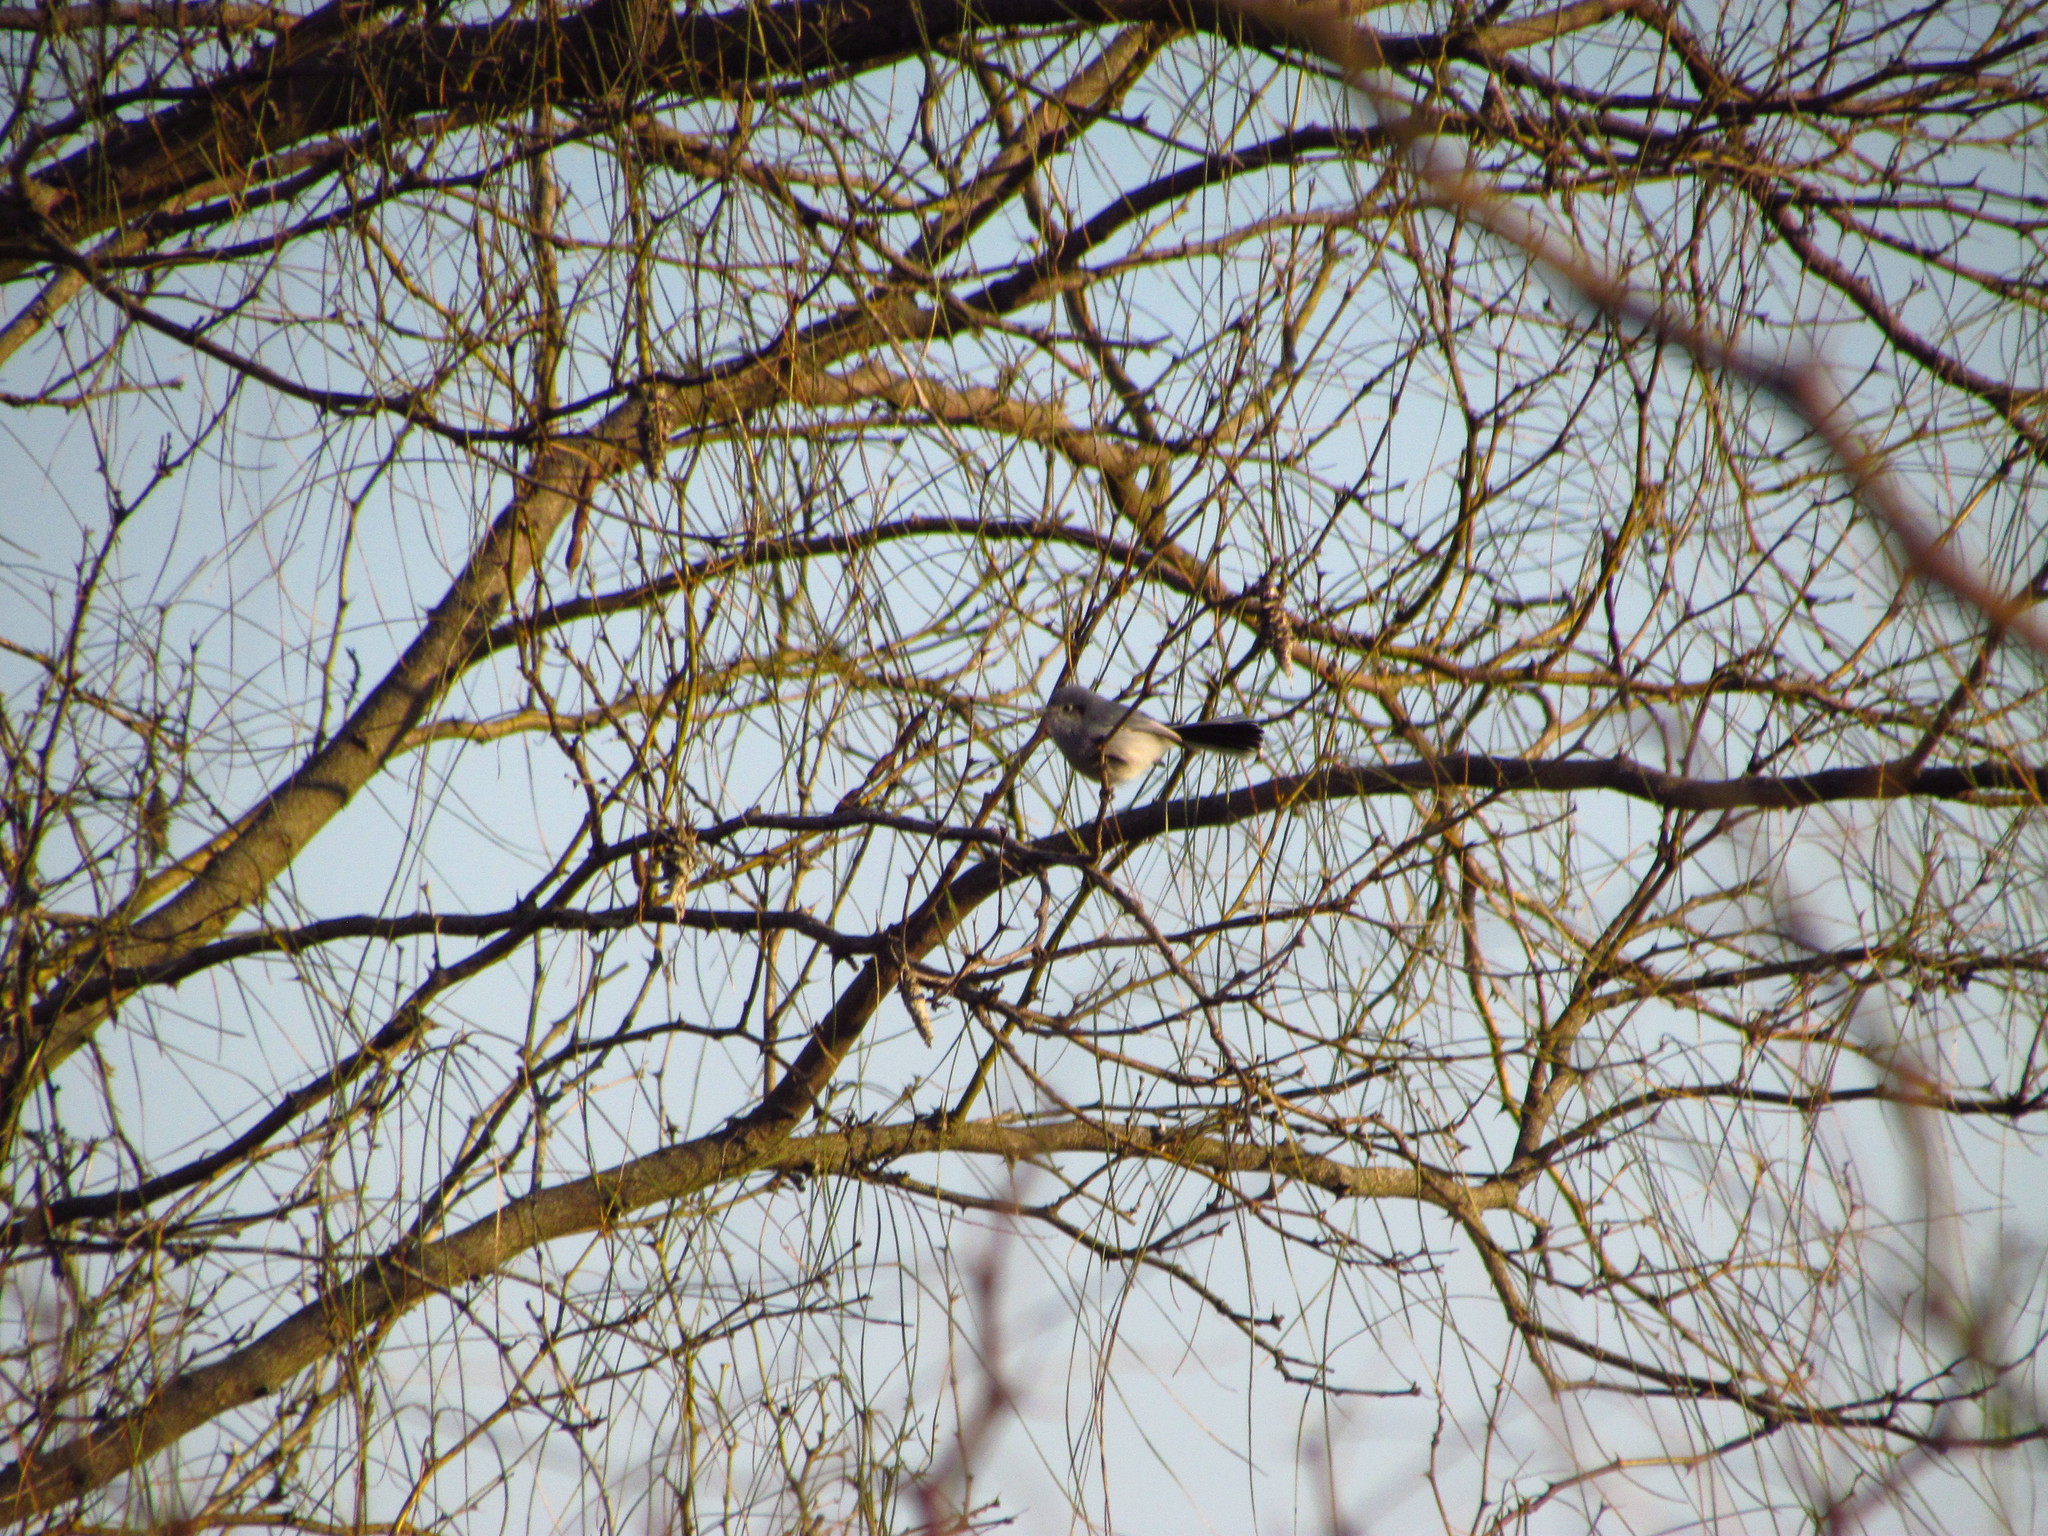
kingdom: Animalia
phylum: Chordata
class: Aves
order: Passeriformes
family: Polioptilidae
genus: Polioptila
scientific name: Polioptila dumicola
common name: Masked gnatcatcher
